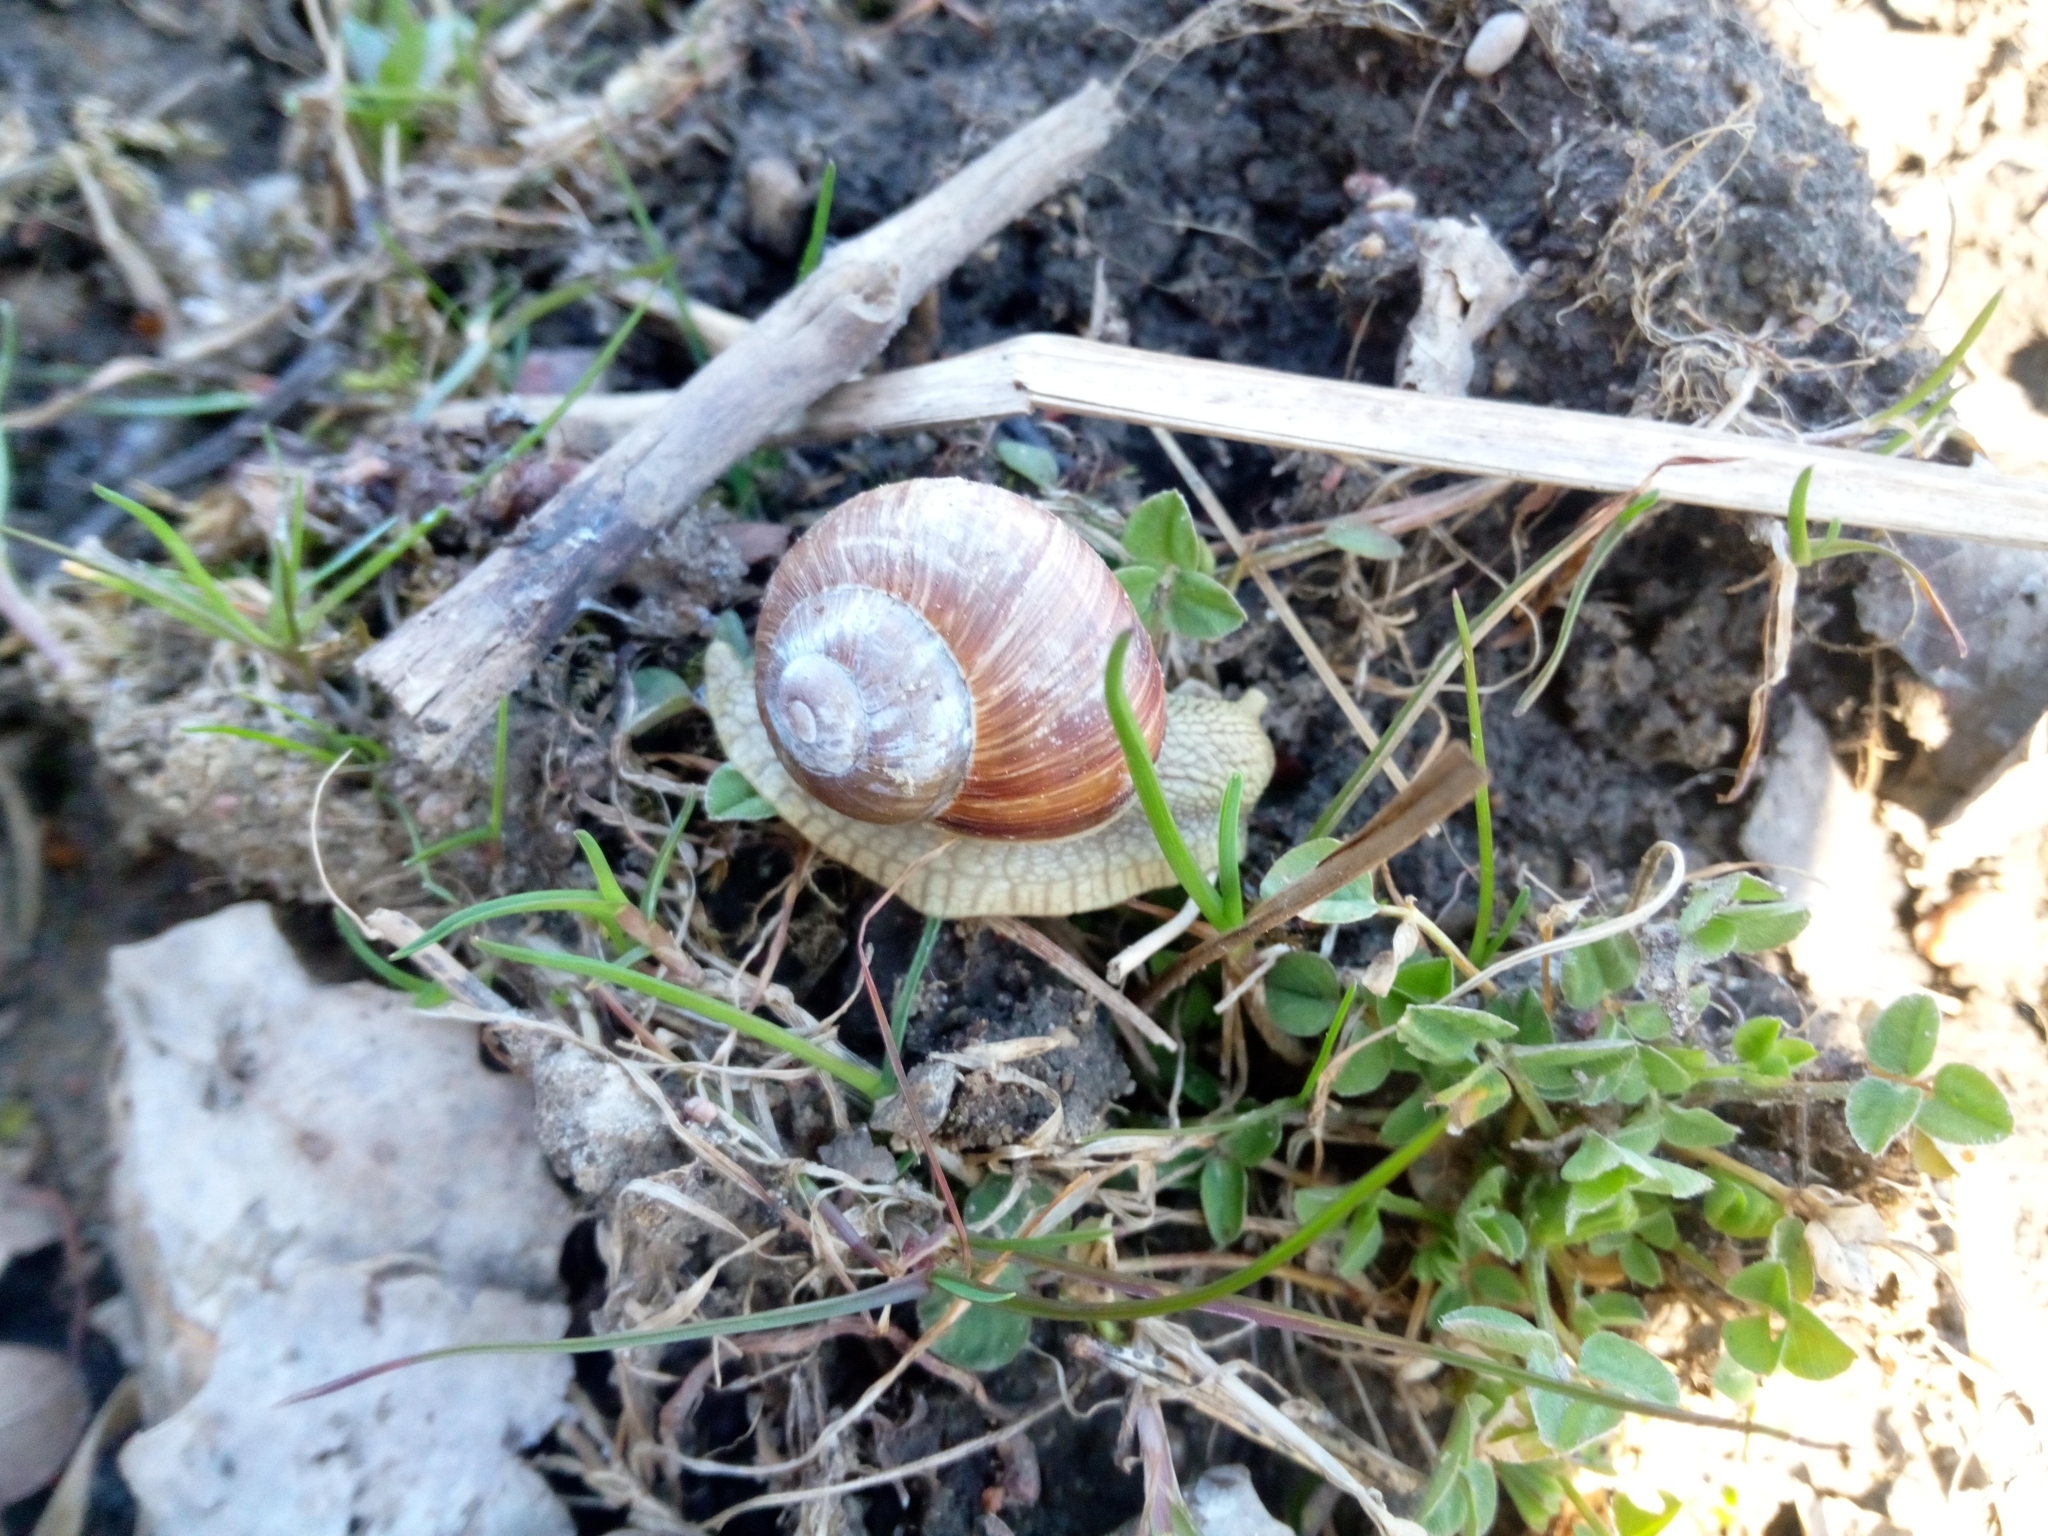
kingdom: Animalia
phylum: Mollusca
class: Gastropoda
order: Stylommatophora
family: Helicidae
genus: Helix
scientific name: Helix pomatia
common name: Roman snail
